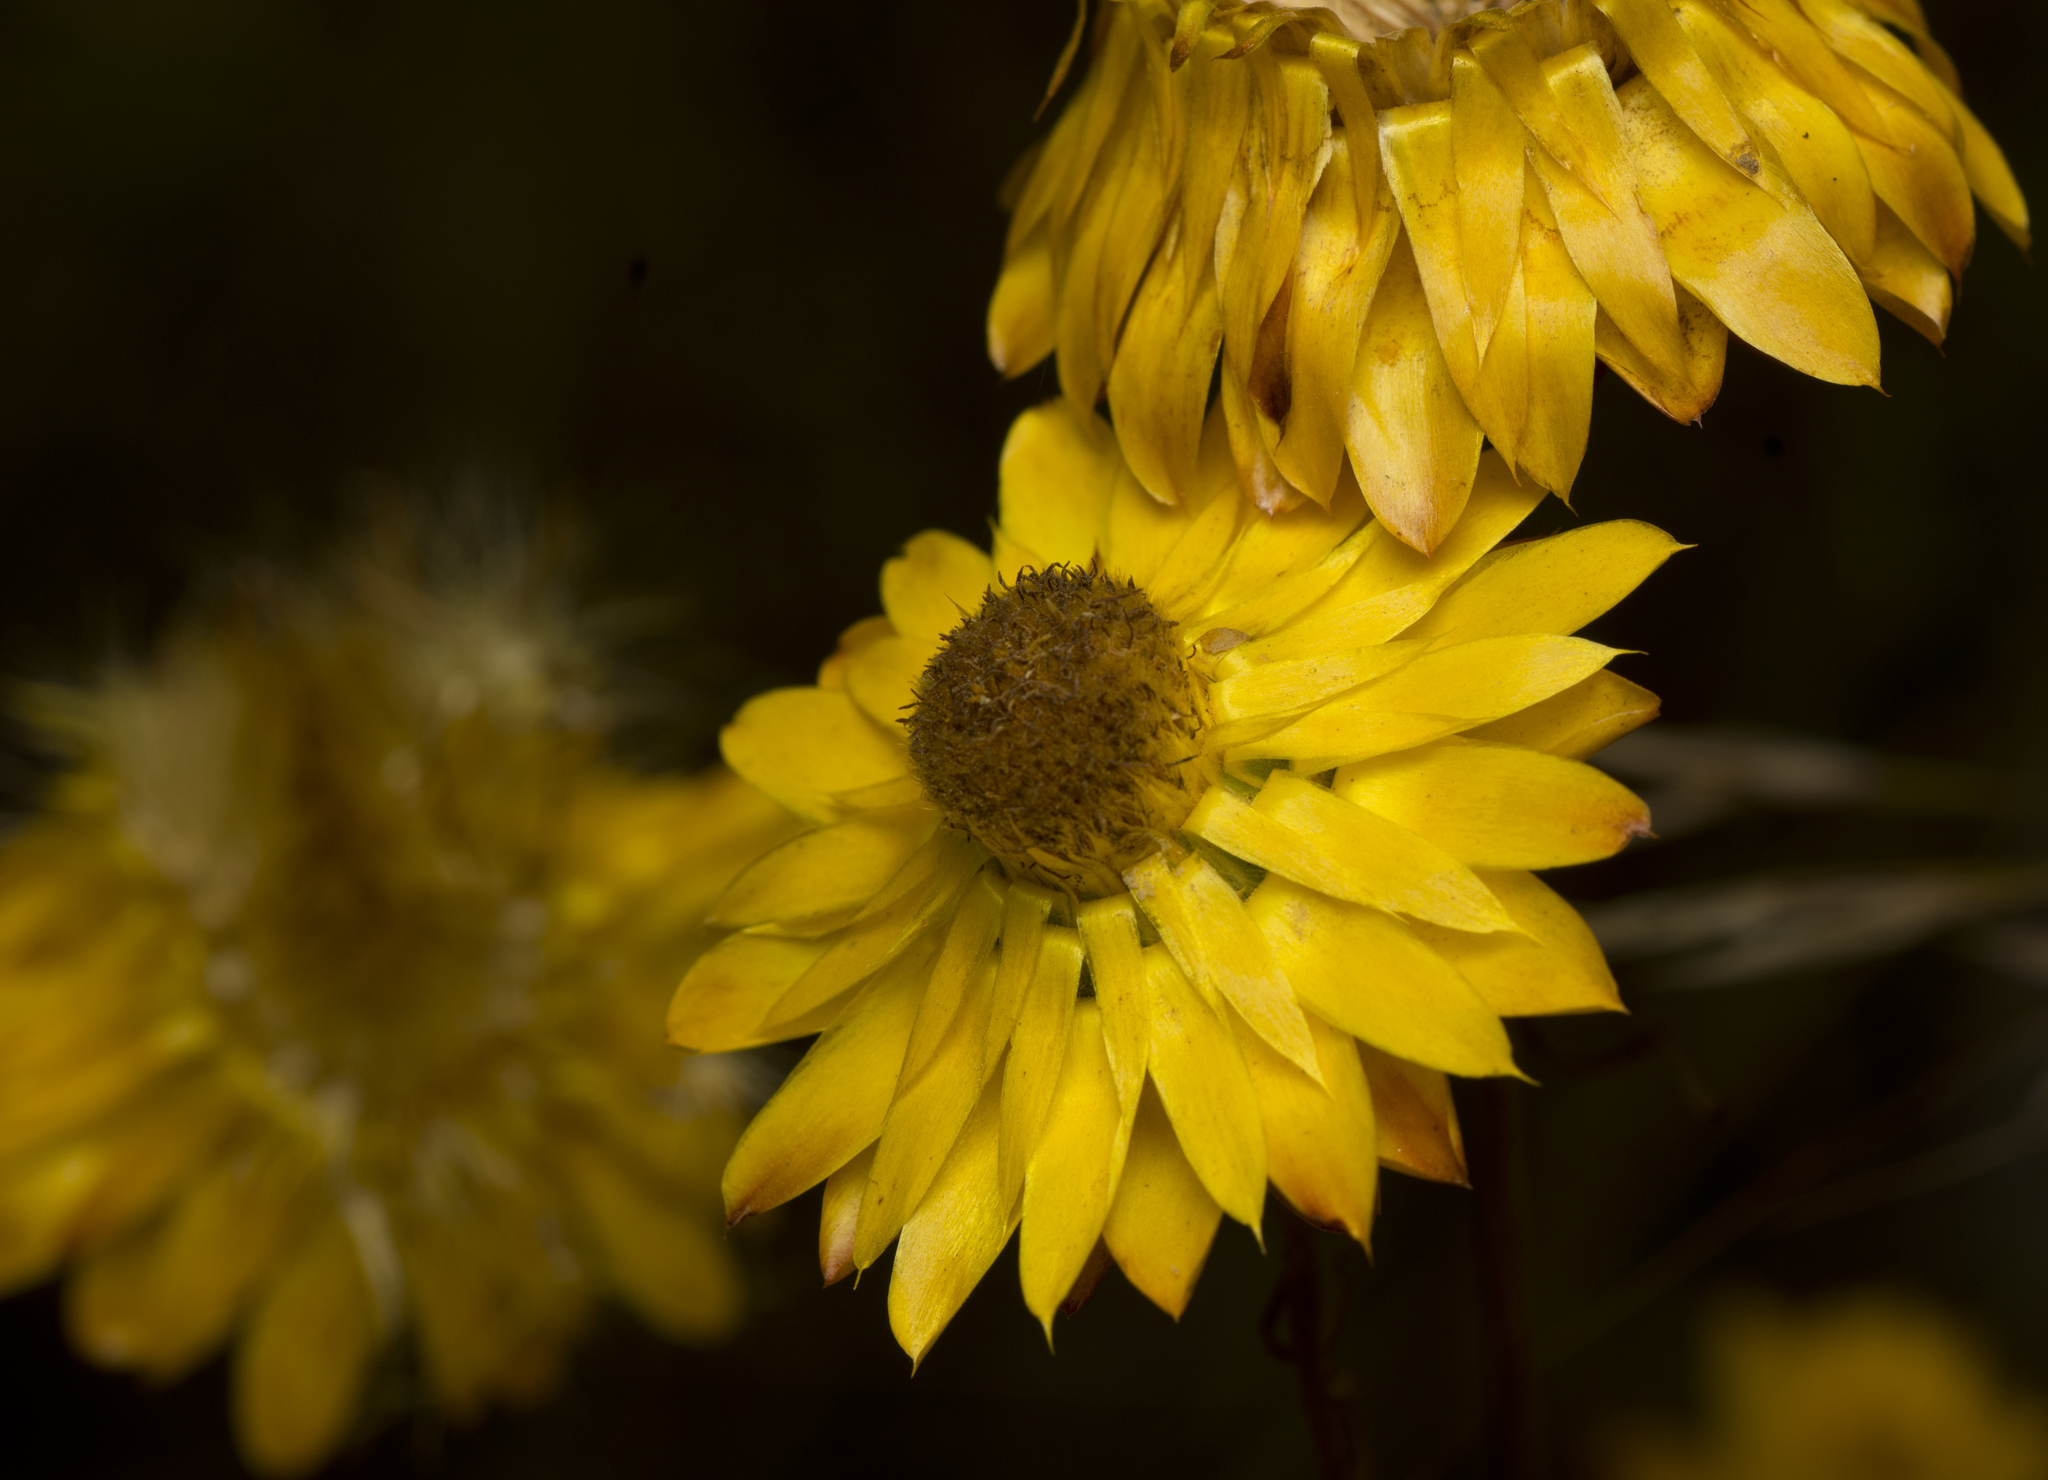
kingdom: Plantae
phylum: Tracheophyta
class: Magnoliopsida
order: Asterales
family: Asteraceae
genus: Xerochrysum
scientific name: Xerochrysum
